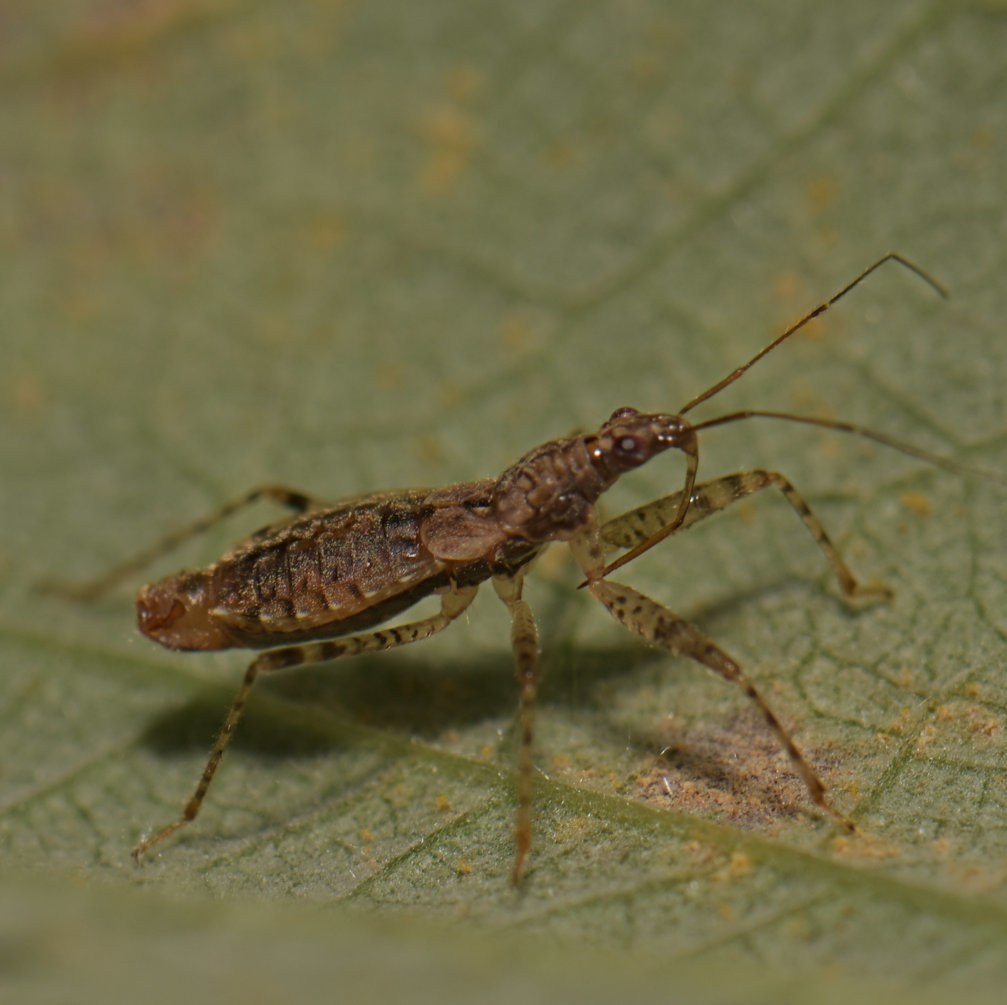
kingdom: Animalia
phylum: Arthropoda
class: Insecta
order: Hemiptera
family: Nabidae
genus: Hoplistoscelis
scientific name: Hoplistoscelis pallescens
